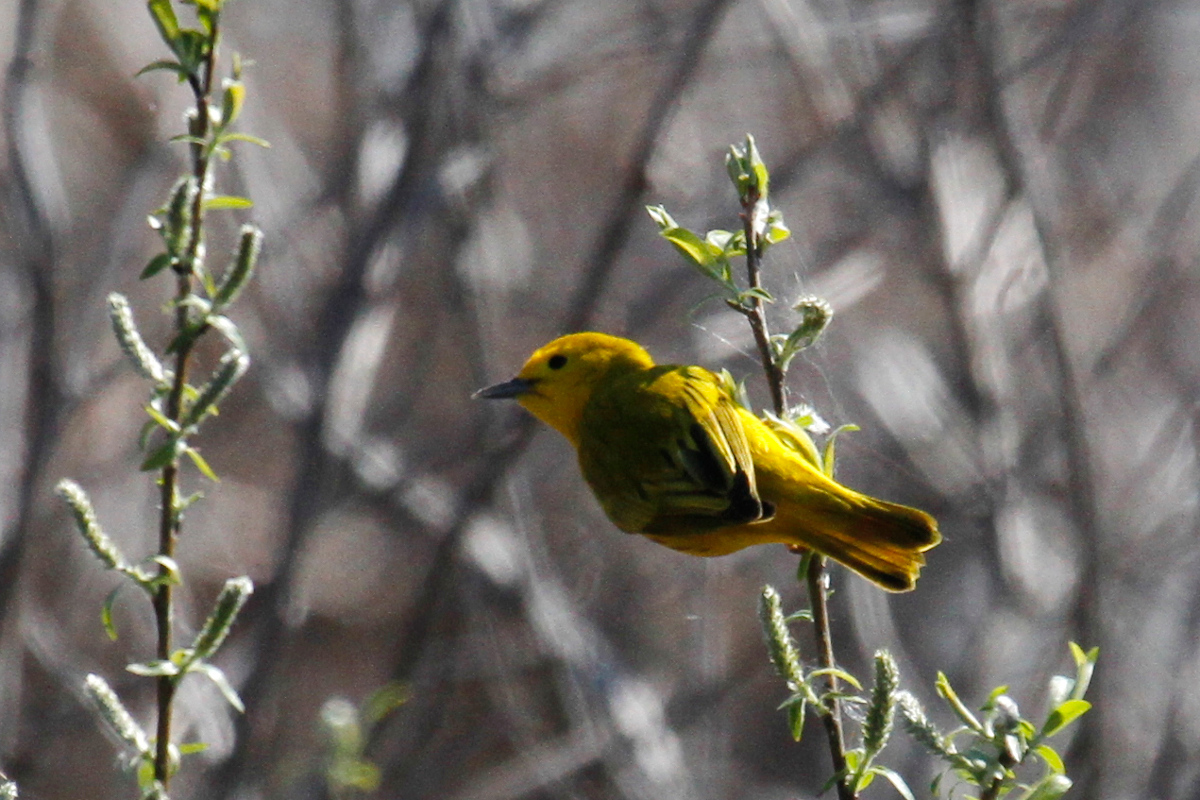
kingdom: Animalia
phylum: Chordata
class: Aves
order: Passeriformes
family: Parulidae
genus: Setophaga
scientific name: Setophaga petechia
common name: Yellow warbler
